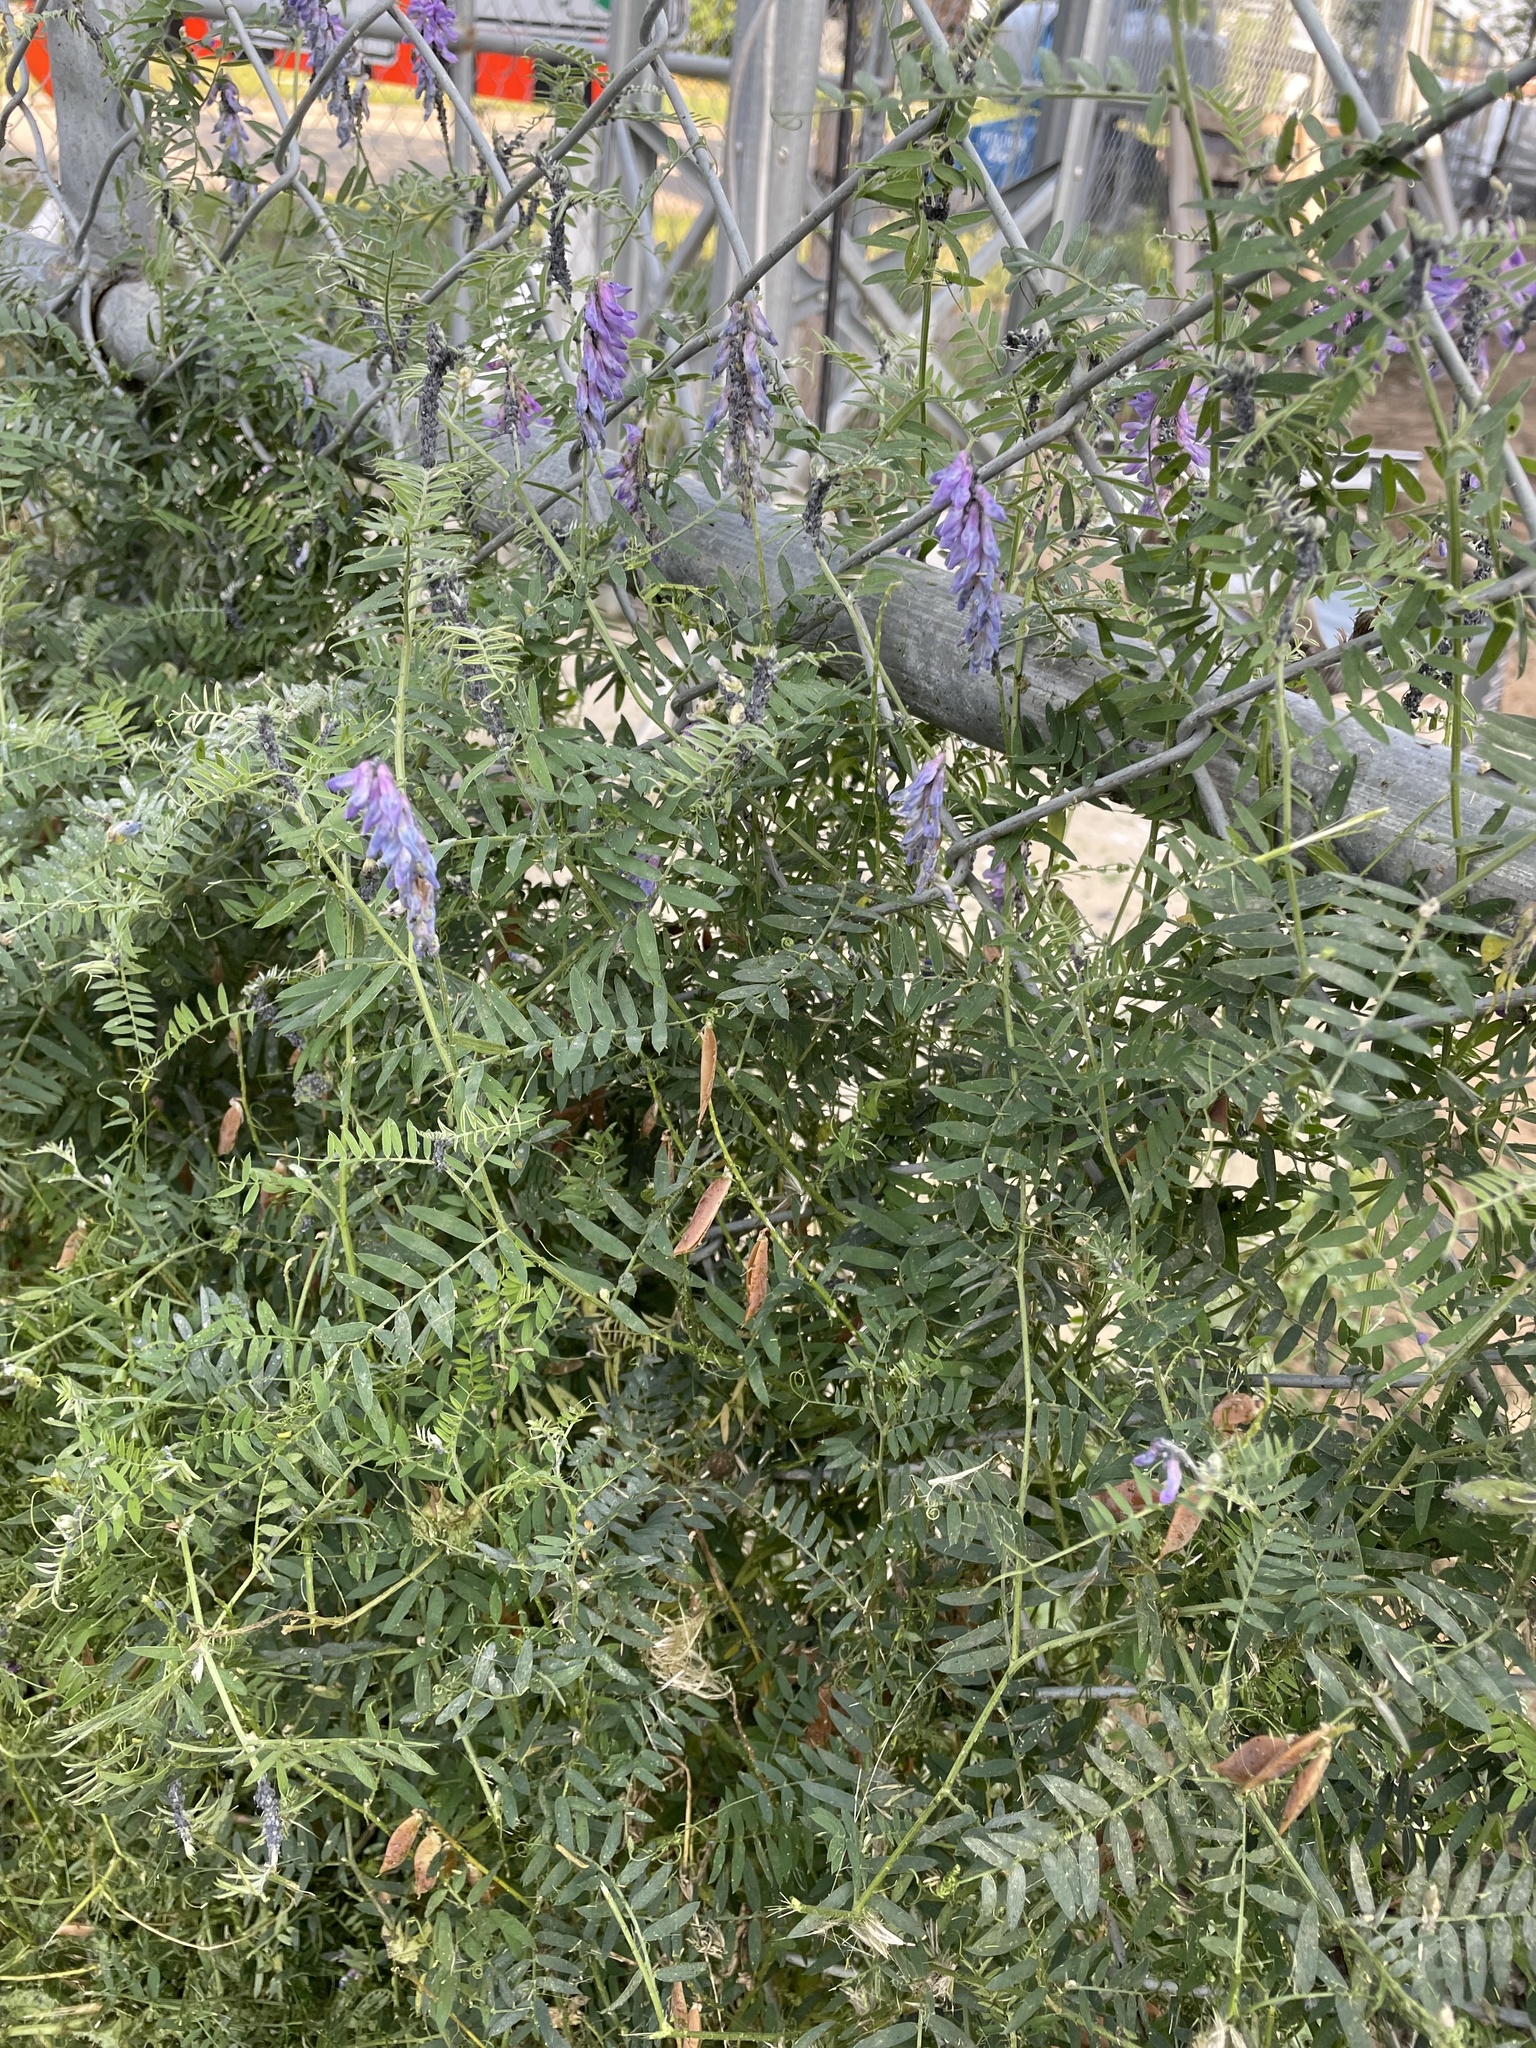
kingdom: Plantae
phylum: Tracheophyta
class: Magnoliopsida
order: Fabales
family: Fabaceae
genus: Vicia
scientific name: Vicia cracca
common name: Bird vetch
